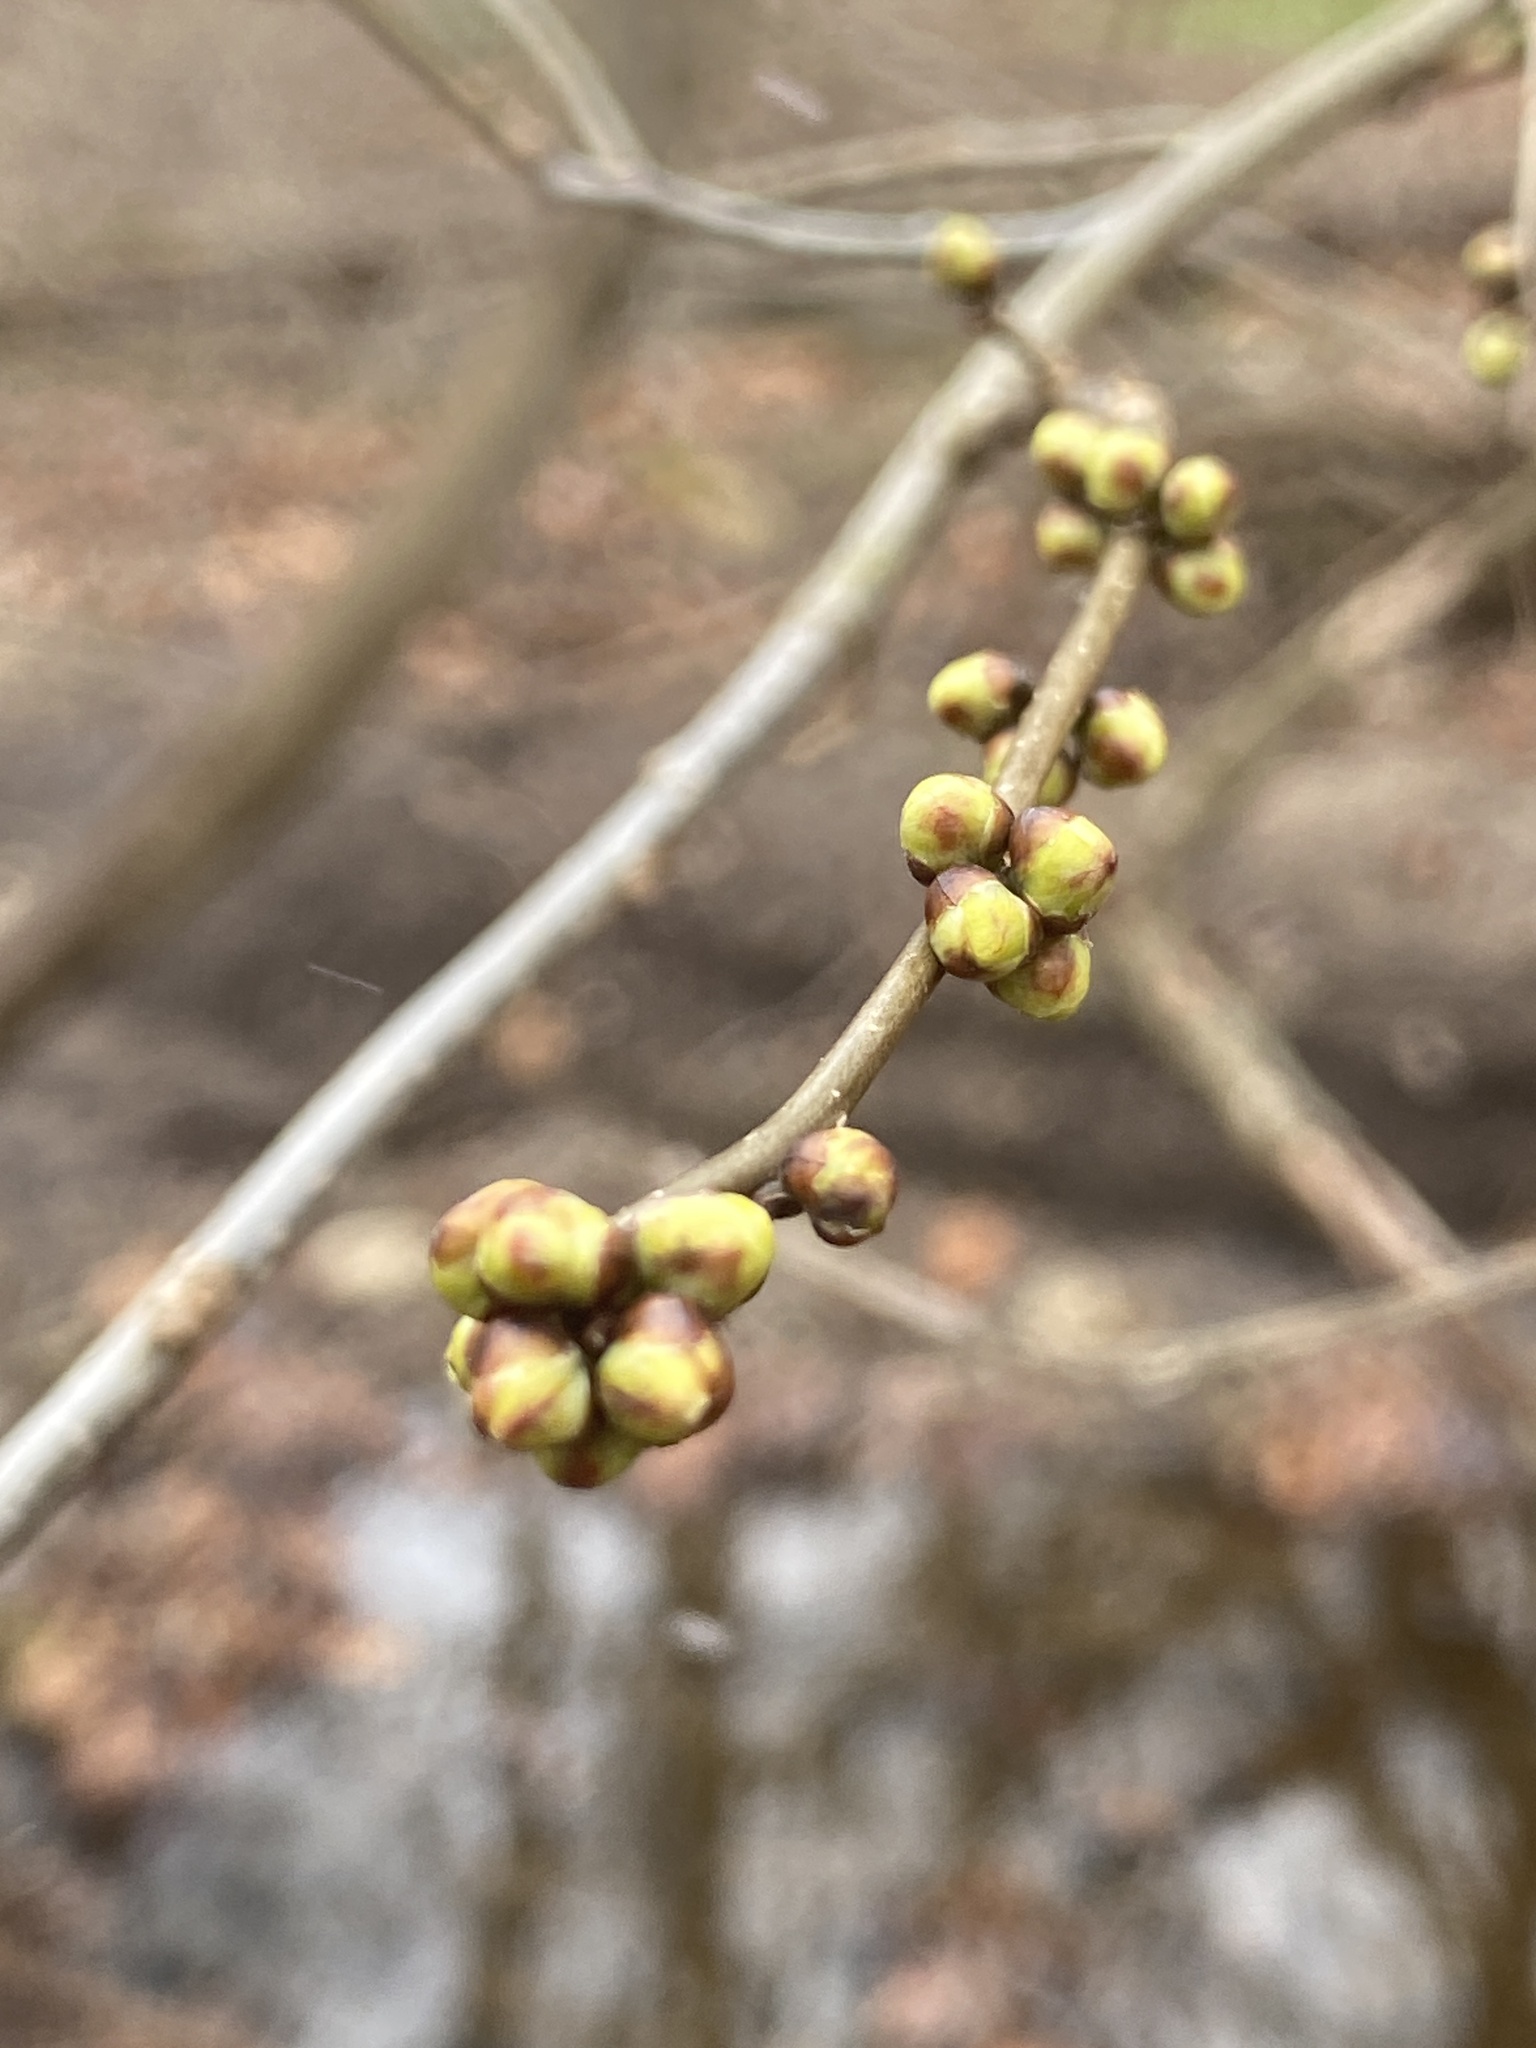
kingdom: Plantae
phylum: Tracheophyta
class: Magnoliopsida
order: Laurales
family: Lauraceae
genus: Lindera
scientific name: Lindera benzoin
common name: Spicebush
